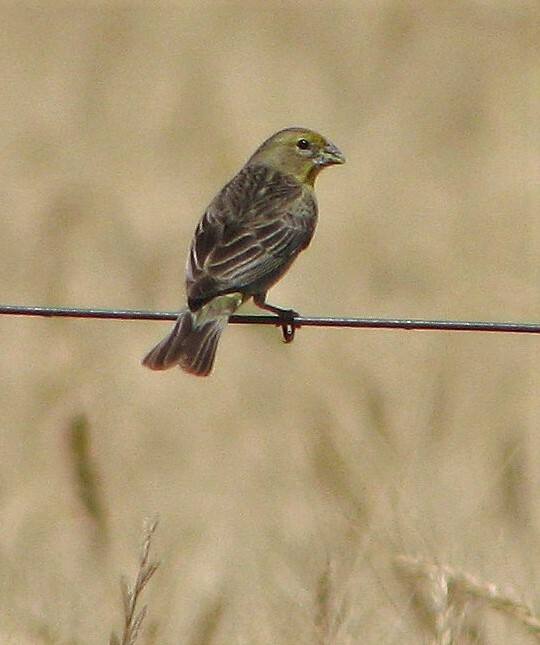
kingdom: Animalia
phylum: Chordata
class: Aves
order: Passeriformes
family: Thraupidae
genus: Sicalis
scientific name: Sicalis luteola
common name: Grassland yellow-finch
